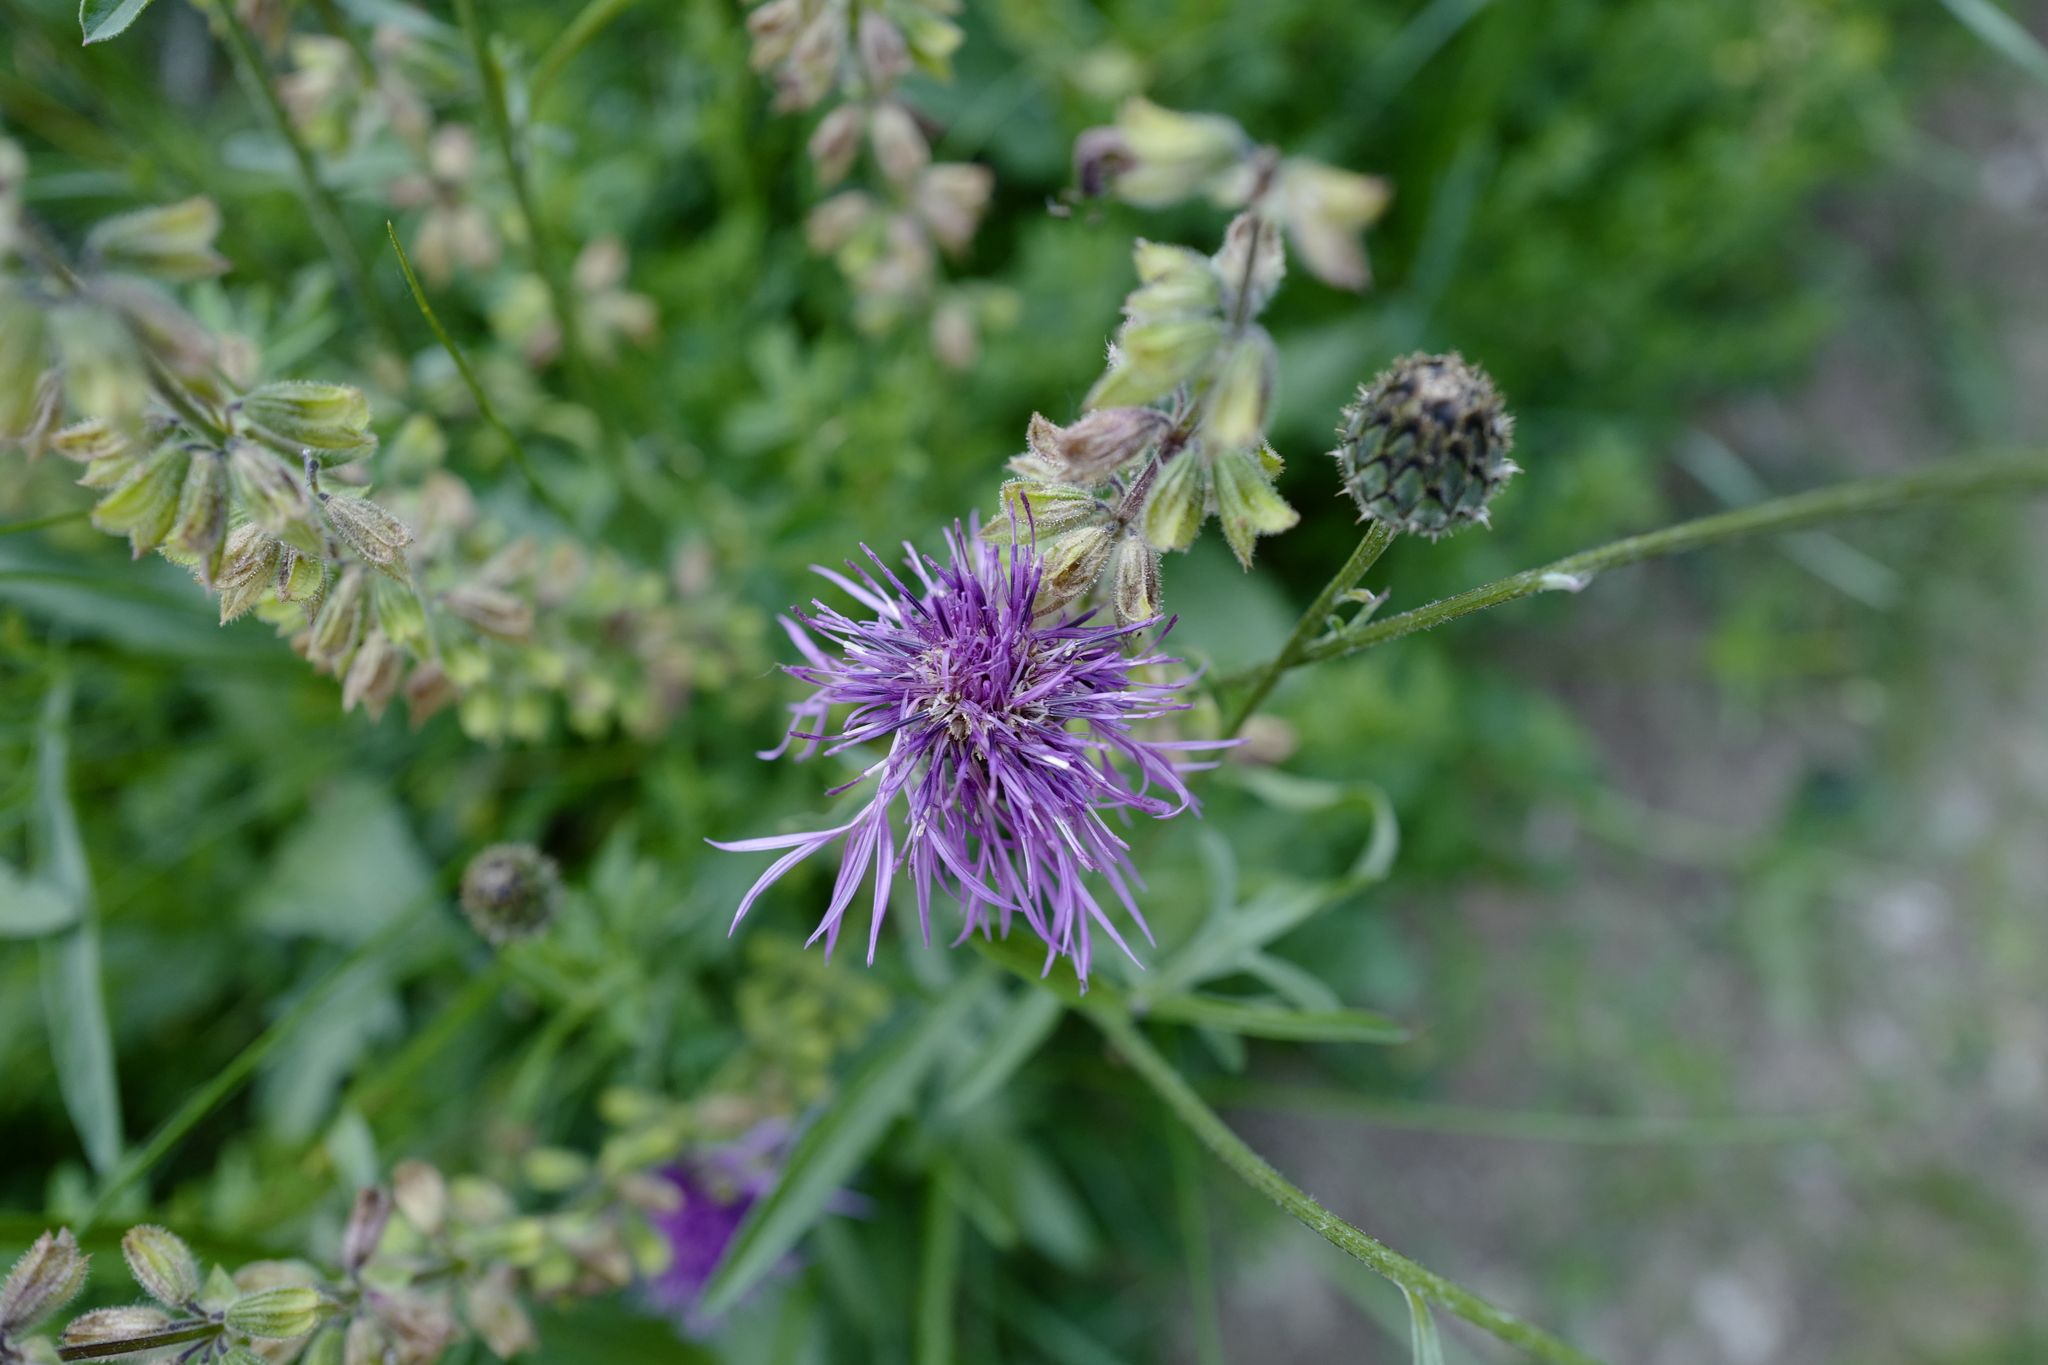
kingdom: Plantae
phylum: Tracheophyta
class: Magnoliopsida
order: Asterales
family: Asteraceae
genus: Centaurea
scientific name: Centaurea scabiosa
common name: Greater knapweed
